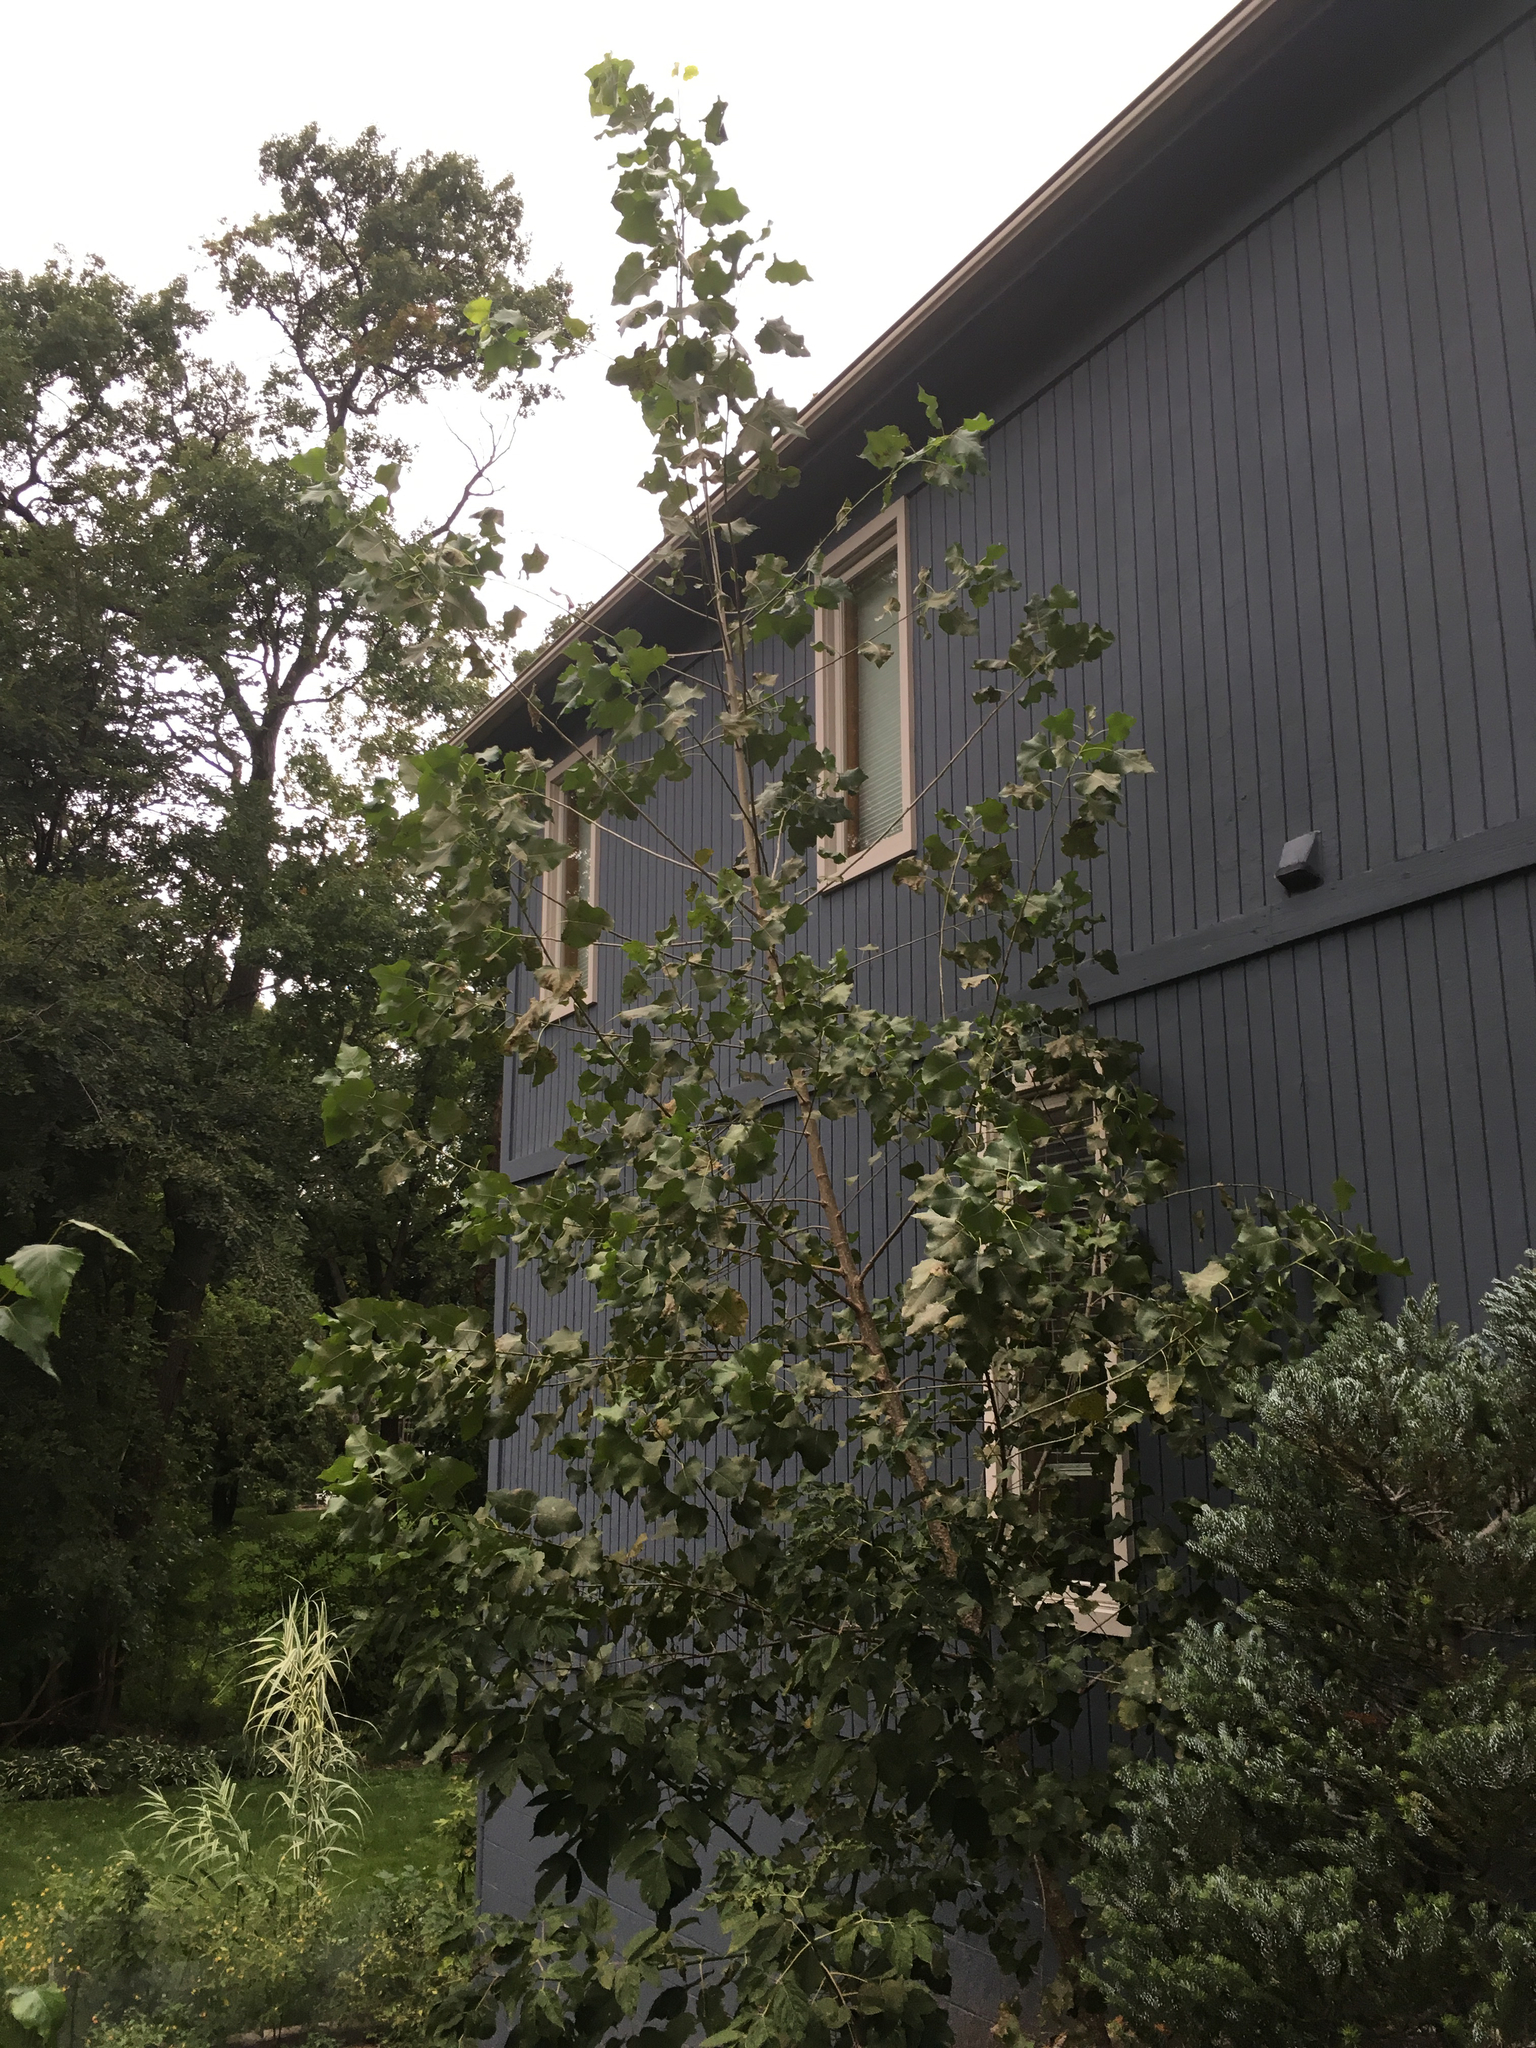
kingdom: Plantae
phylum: Tracheophyta
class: Magnoliopsida
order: Malpighiales
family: Salicaceae
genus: Populus
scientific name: Populus deltoides
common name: Eastern cottonwood
